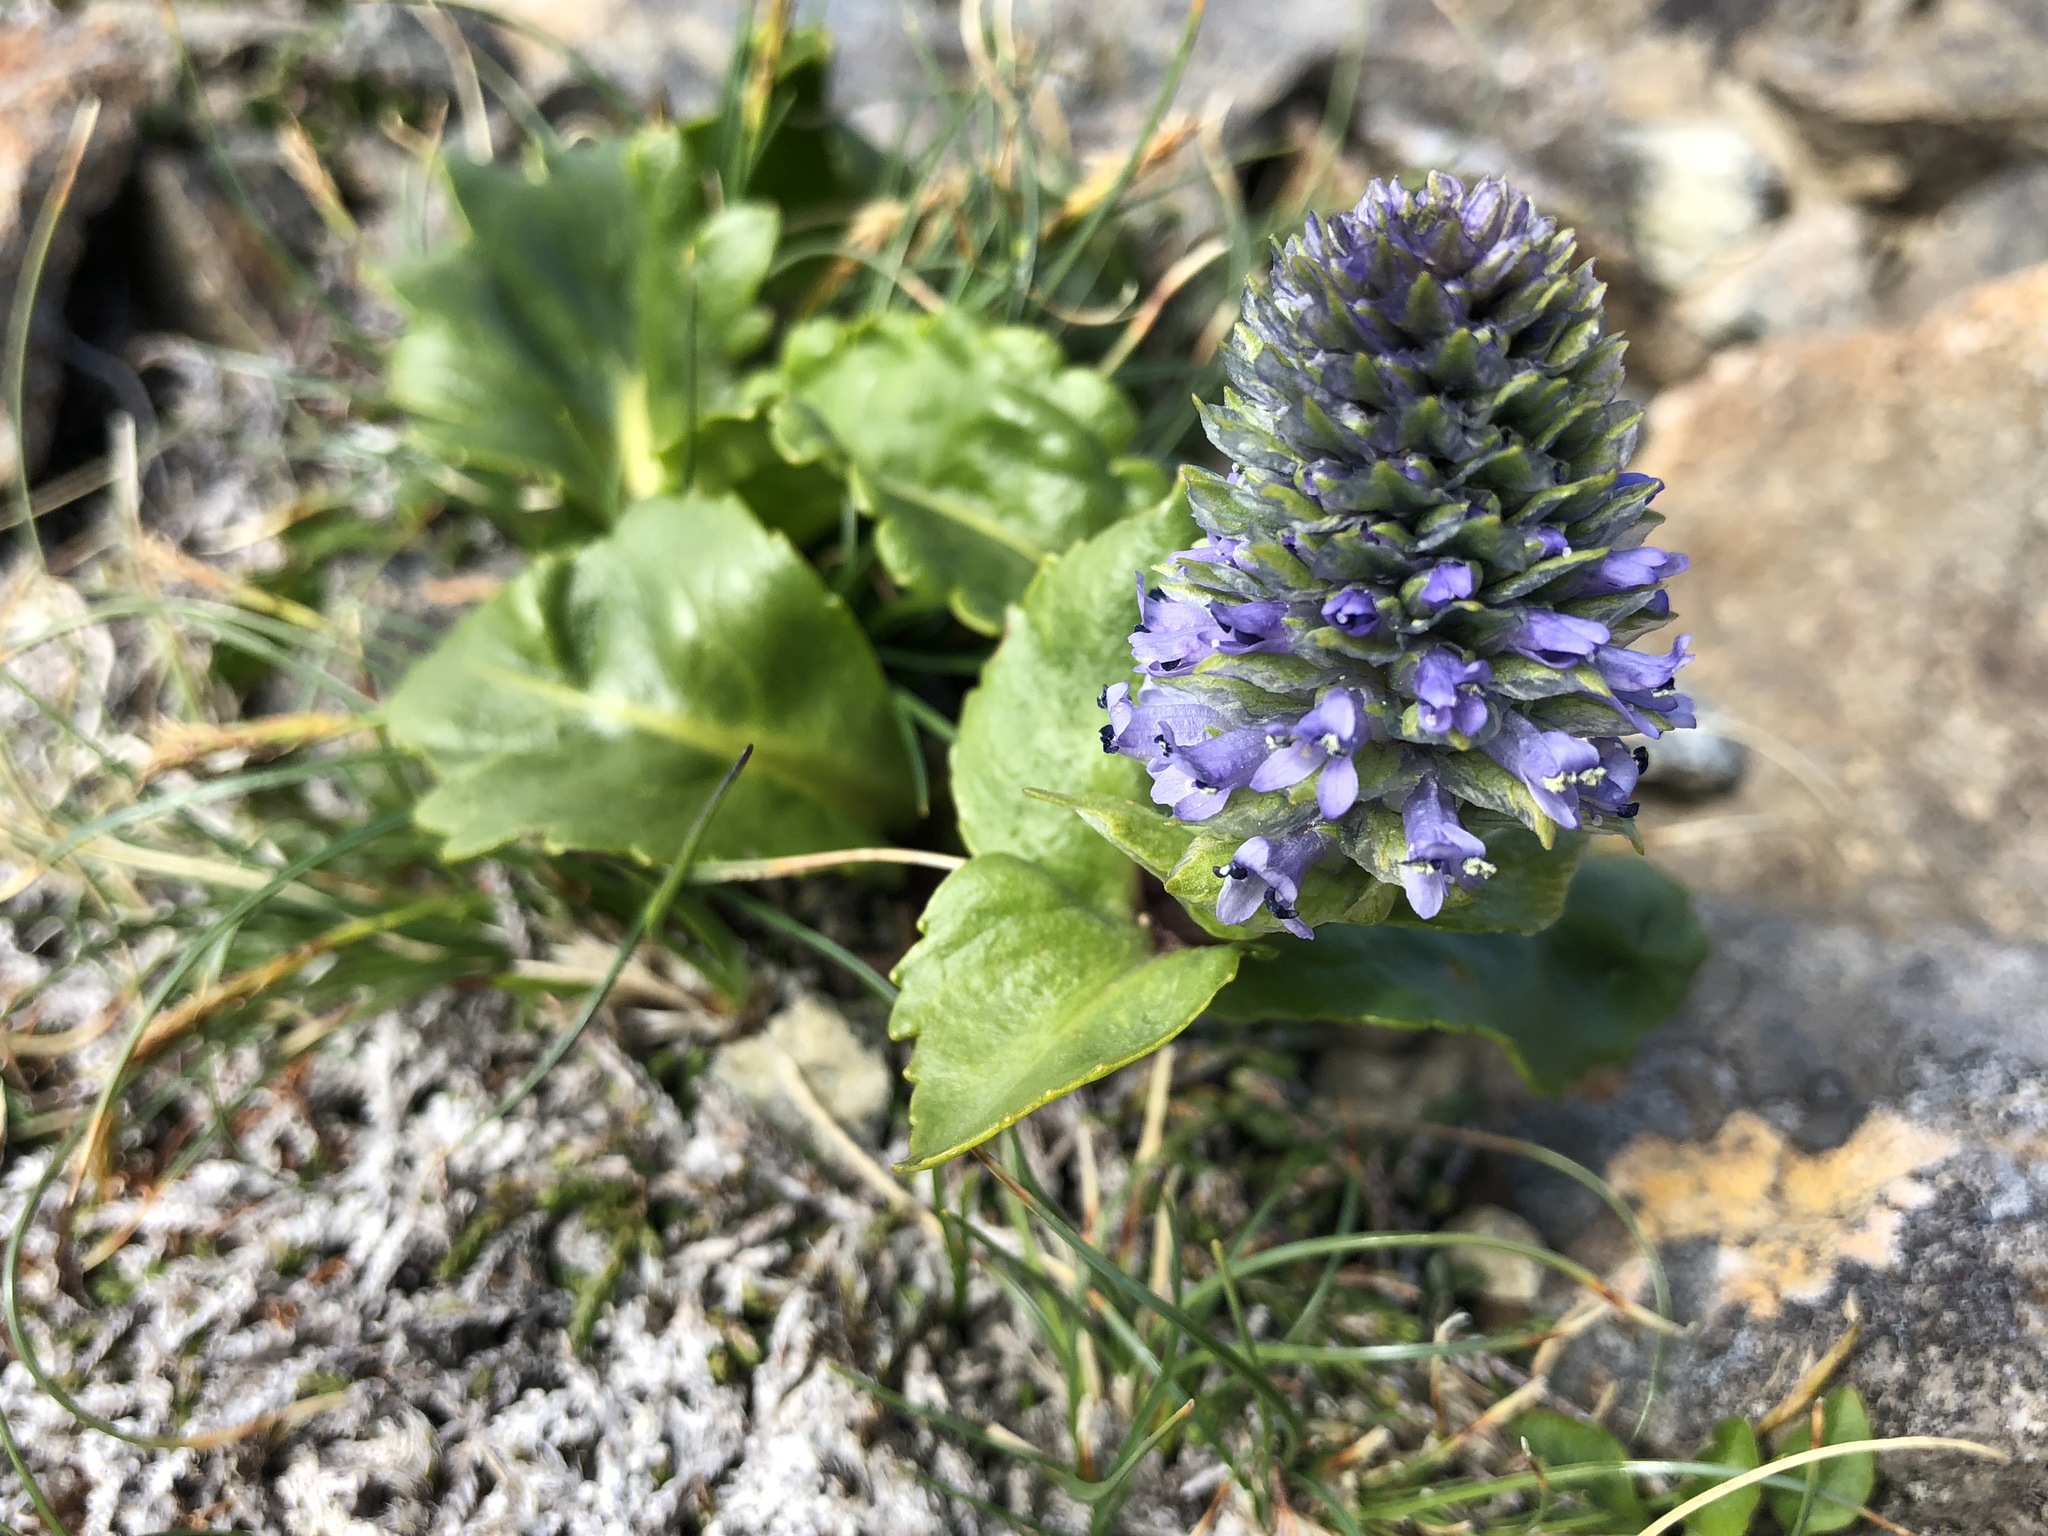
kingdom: Plantae
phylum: Tracheophyta
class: Magnoliopsida
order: Lamiales
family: Plantaginaceae
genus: Lagotis
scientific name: Lagotis glauca
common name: Glaucous weaselsnout
